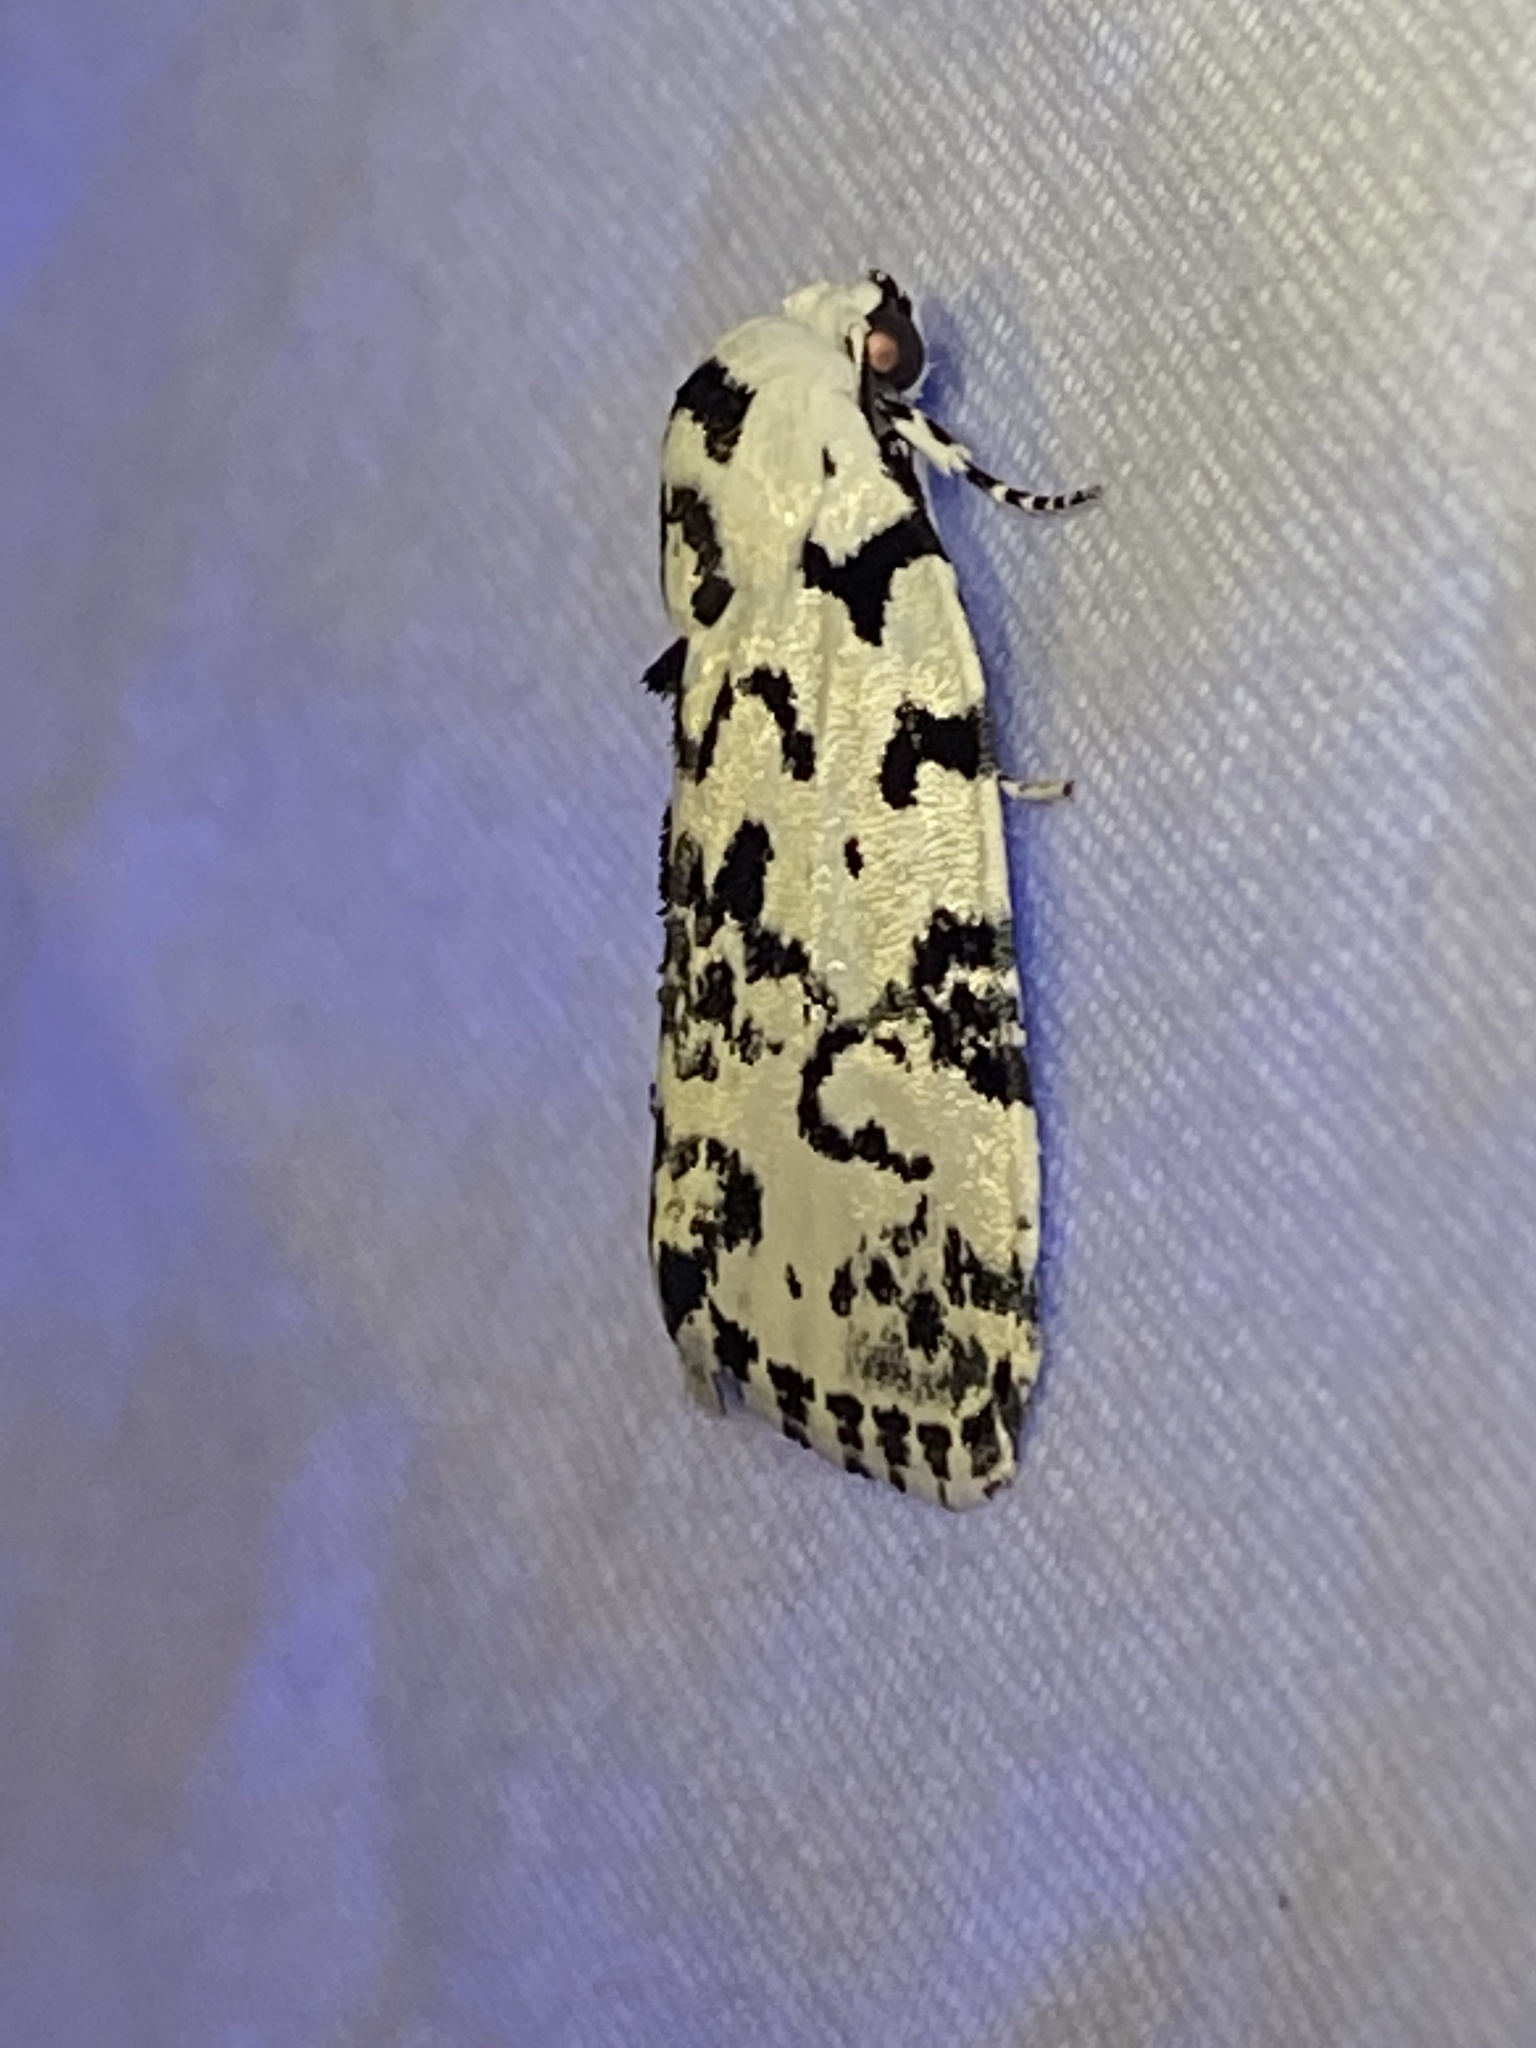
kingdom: Animalia
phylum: Arthropoda
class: Insecta
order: Lepidoptera
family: Noctuidae
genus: Polygrammate
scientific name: Polygrammate hebraeicum
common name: Hebrew moth
